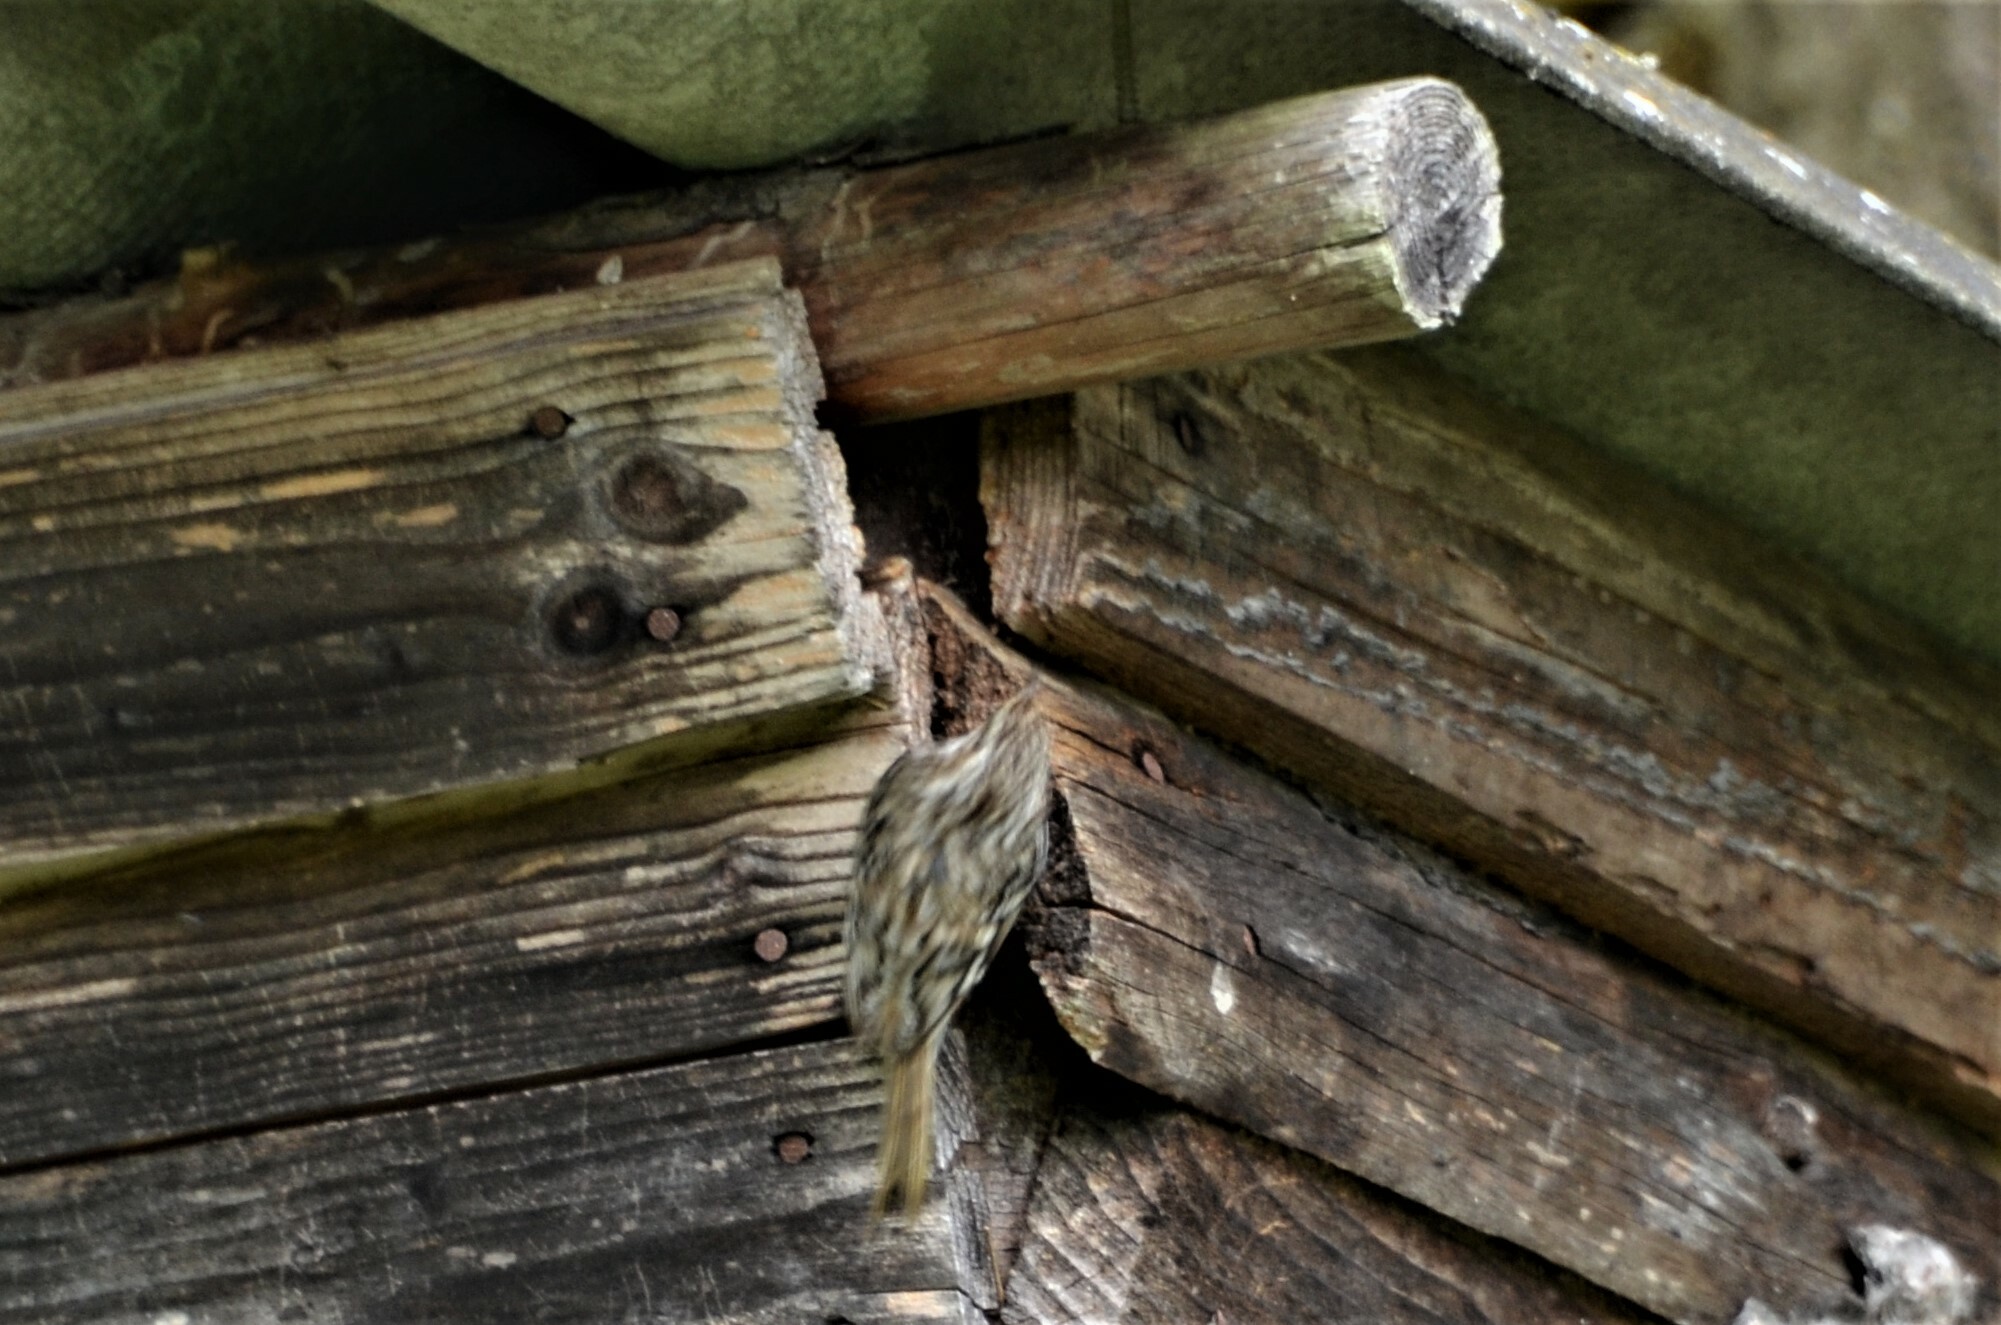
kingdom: Animalia
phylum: Chordata
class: Aves
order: Passeriformes
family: Certhiidae
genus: Certhia
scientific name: Certhia familiaris
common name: Eurasian treecreeper
